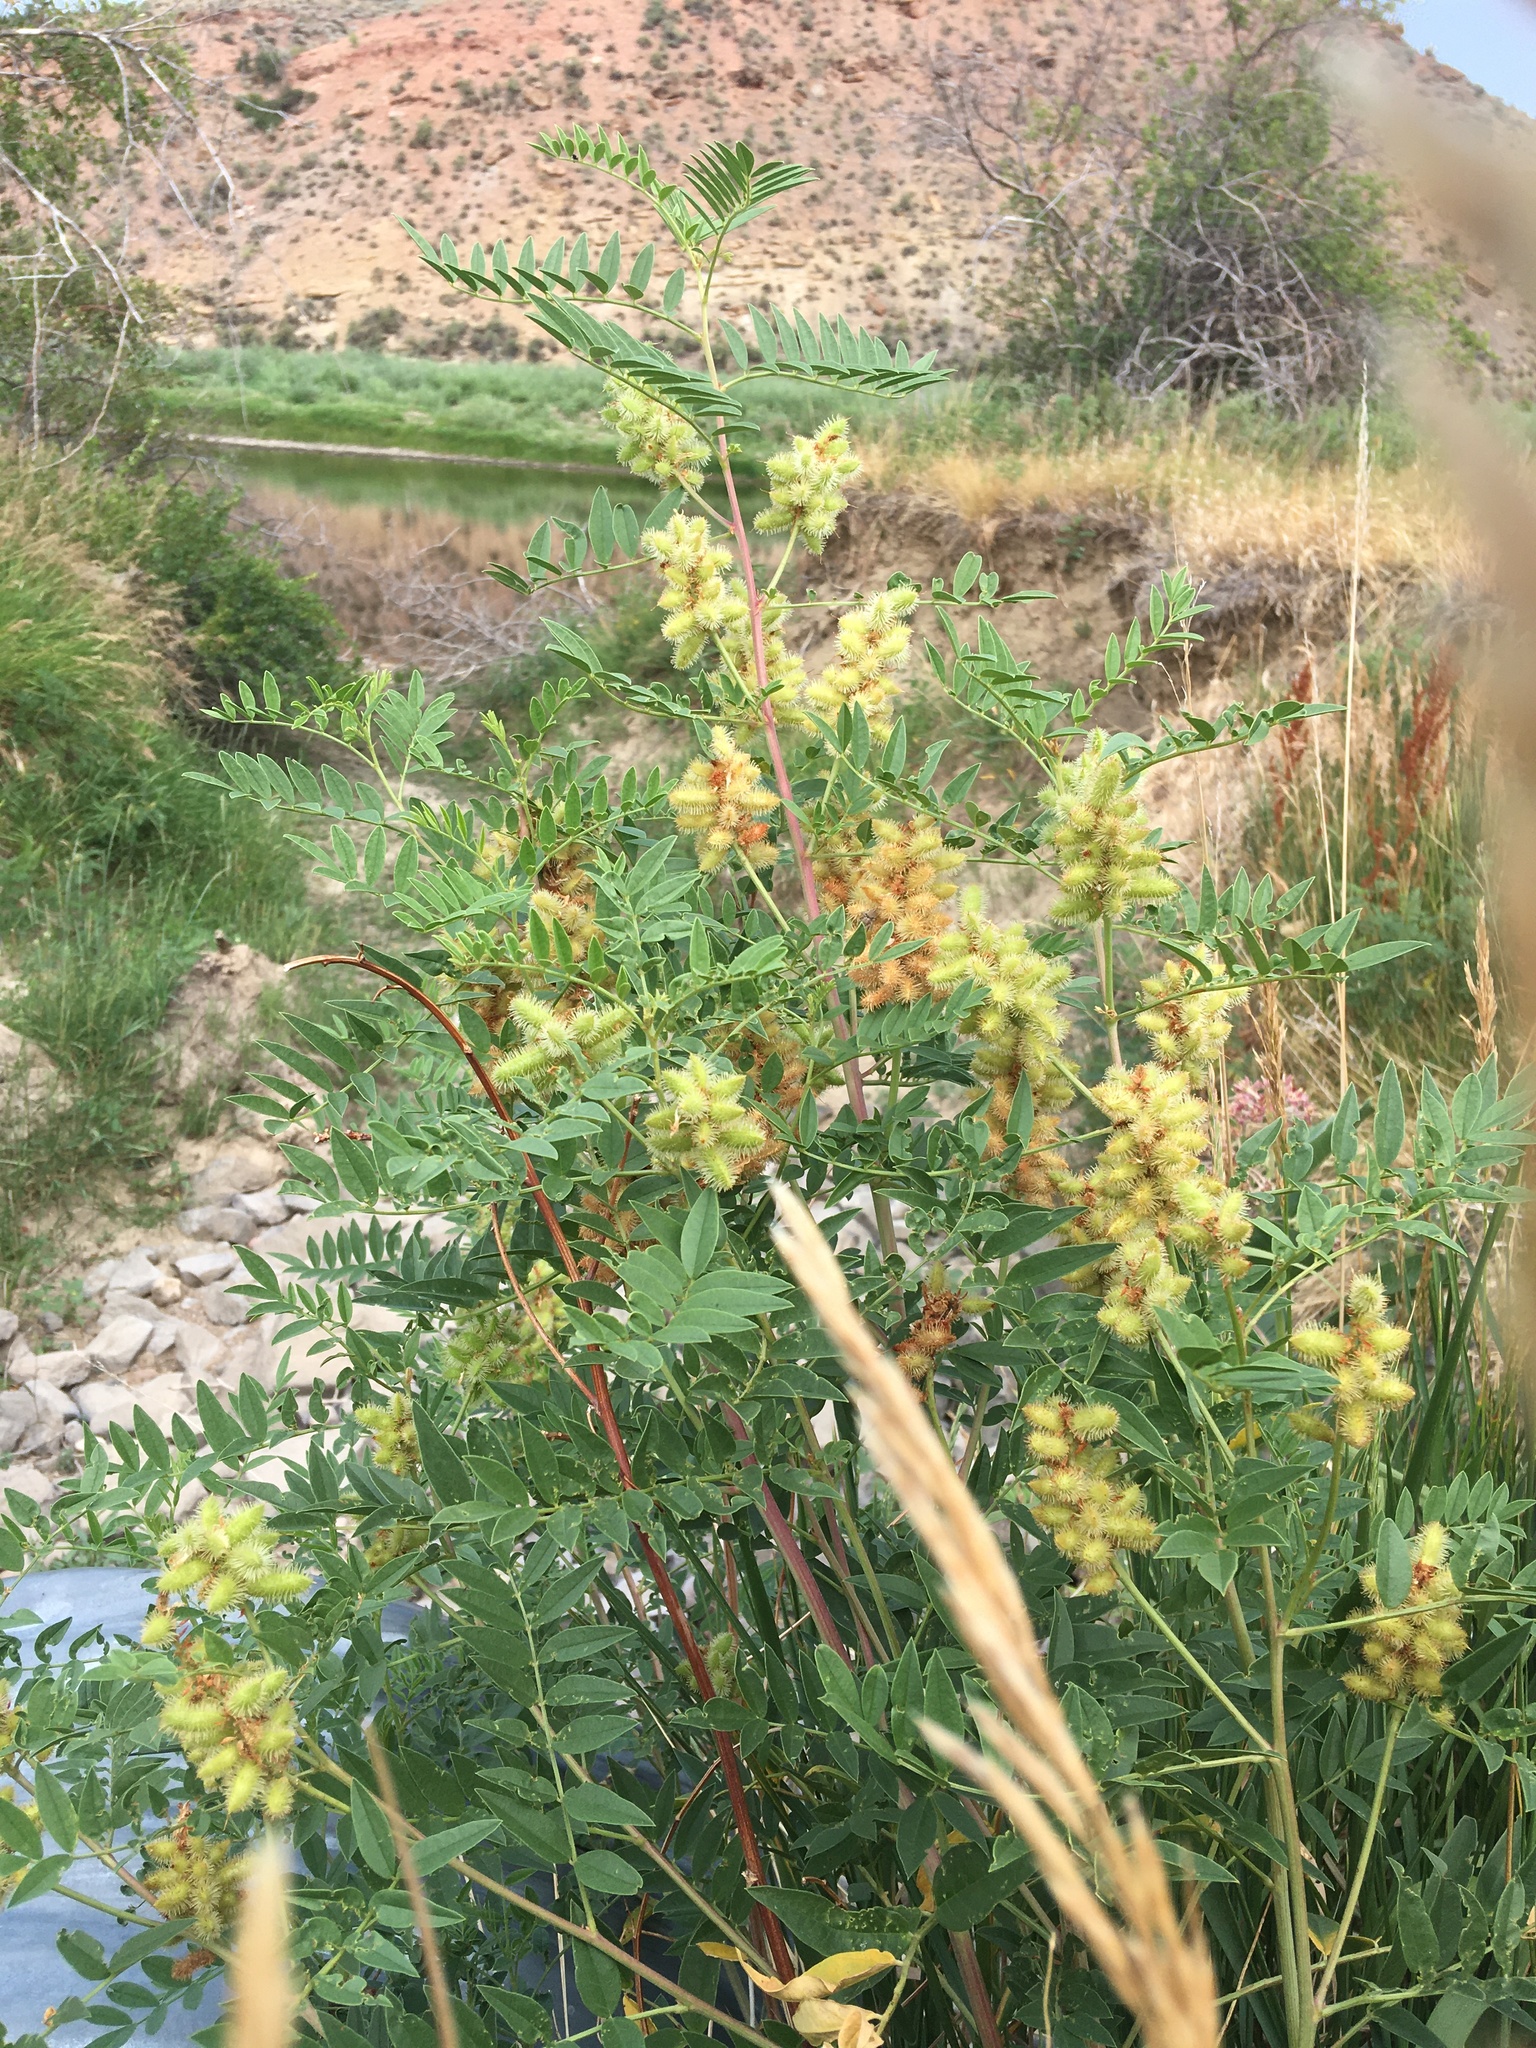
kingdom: Plantae
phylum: Tracheophyta
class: Magnoliopsida
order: Fabales
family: Fabaceae
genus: Glycyrrhiza
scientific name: Glycyrrhiza lepidota
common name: American liquorice
